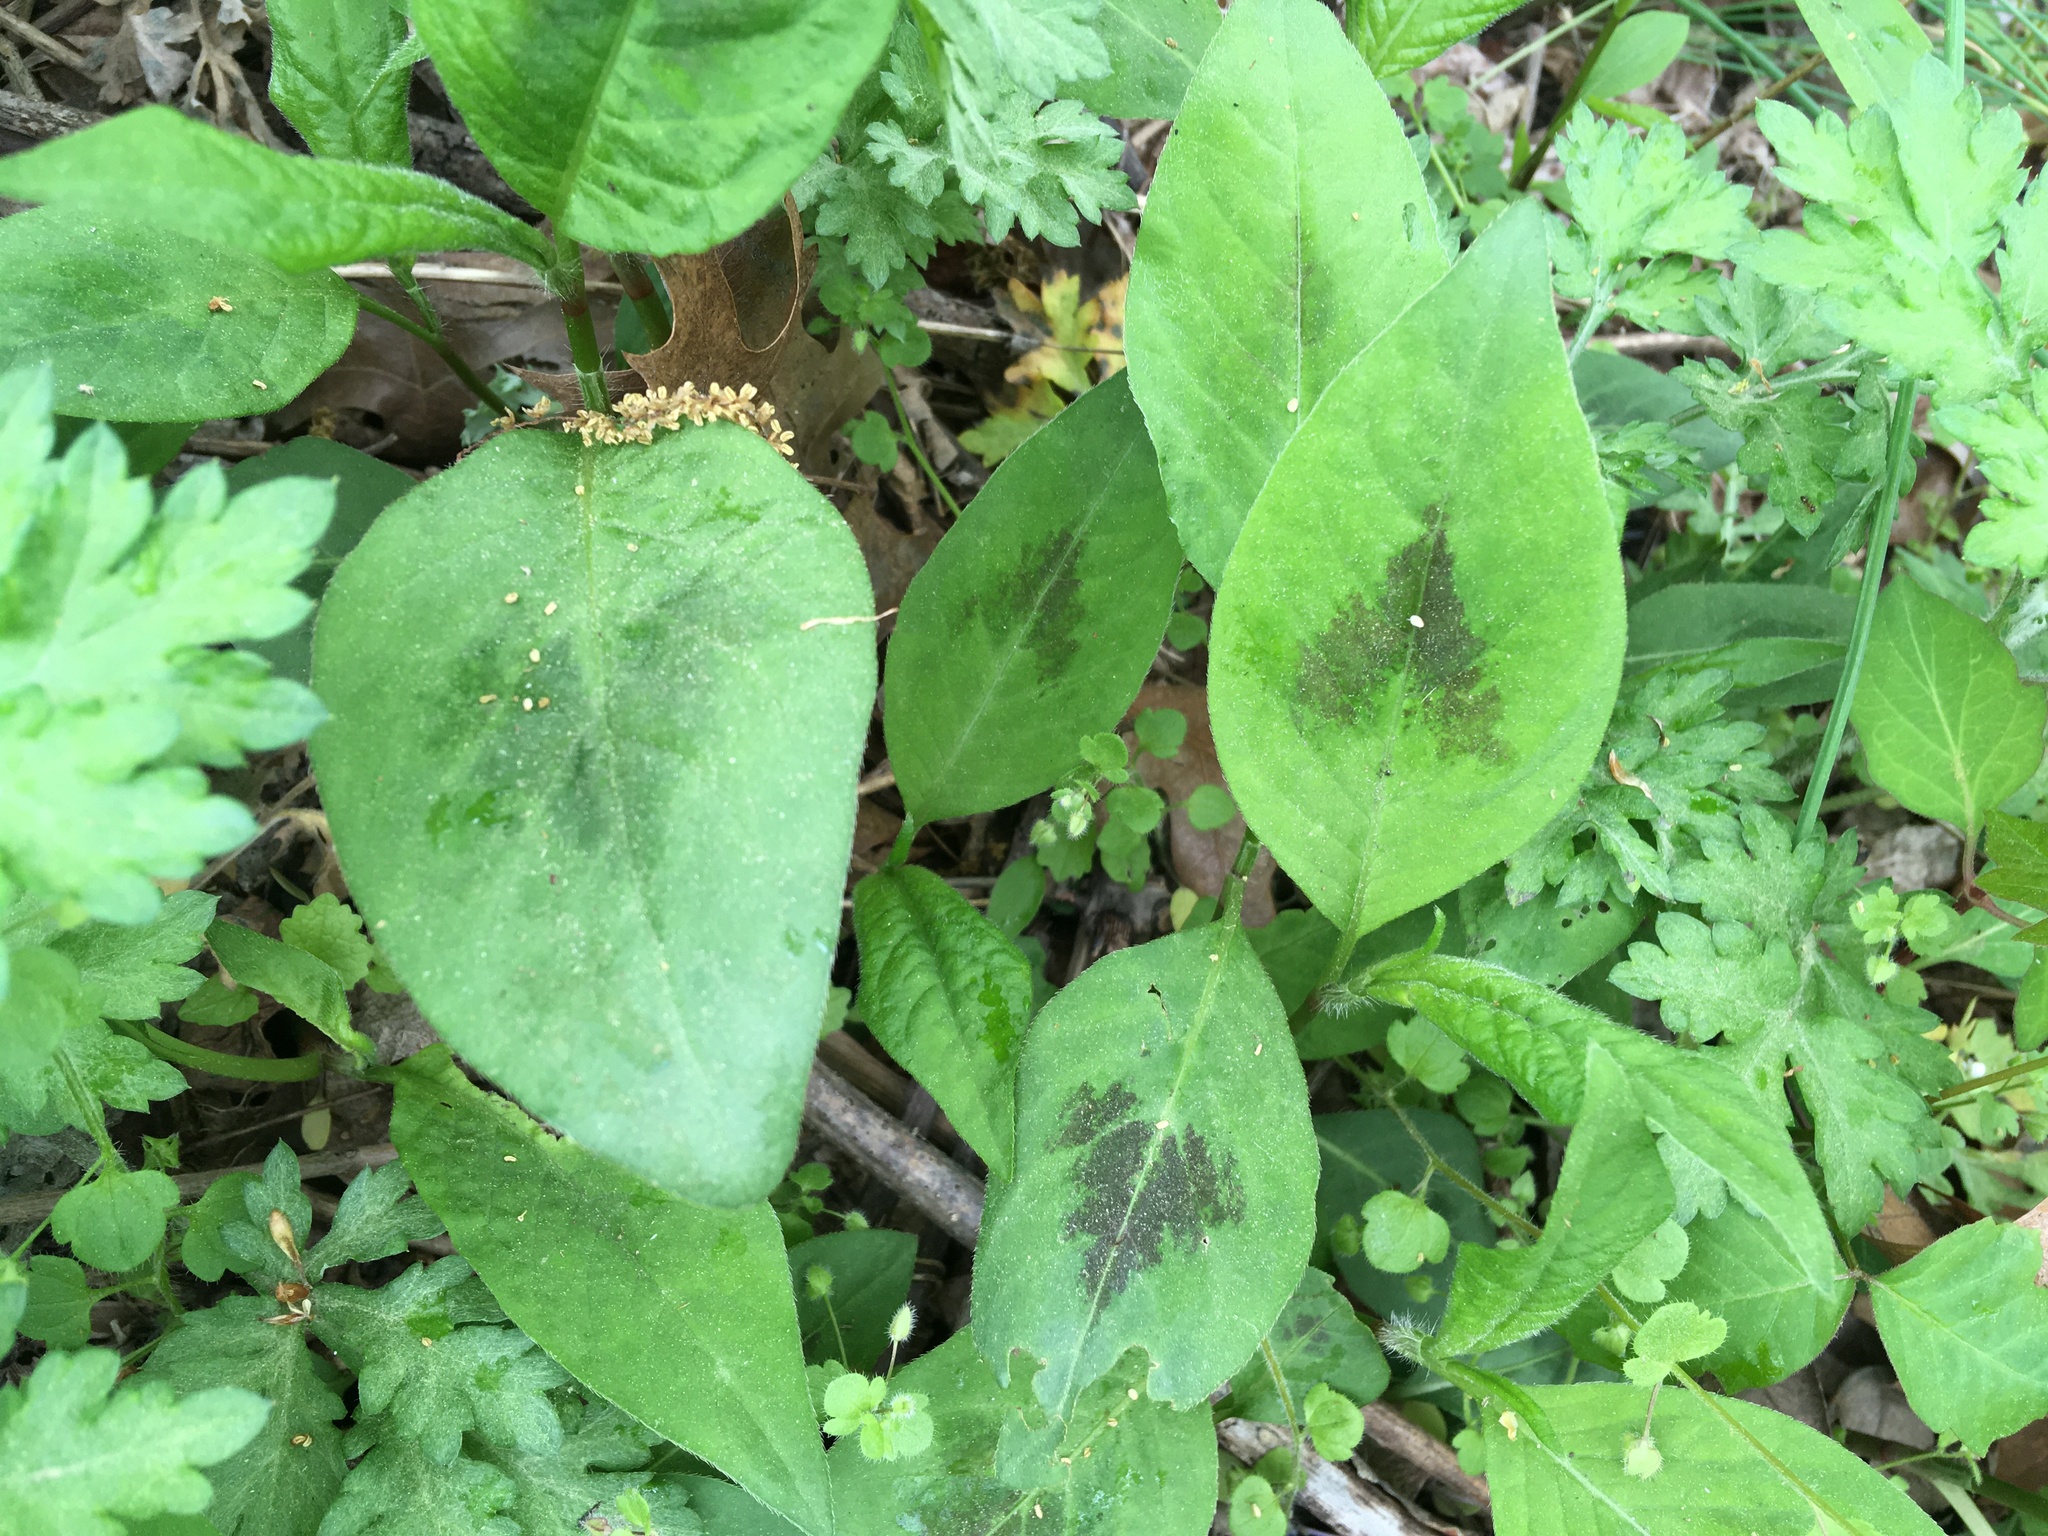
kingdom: Plantae
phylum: Tracheophyta
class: Magnoliopsida
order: Caryophyllales
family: Polygonaceae
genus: Persicaria
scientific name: Persicaria virginiana
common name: Jumpseed
